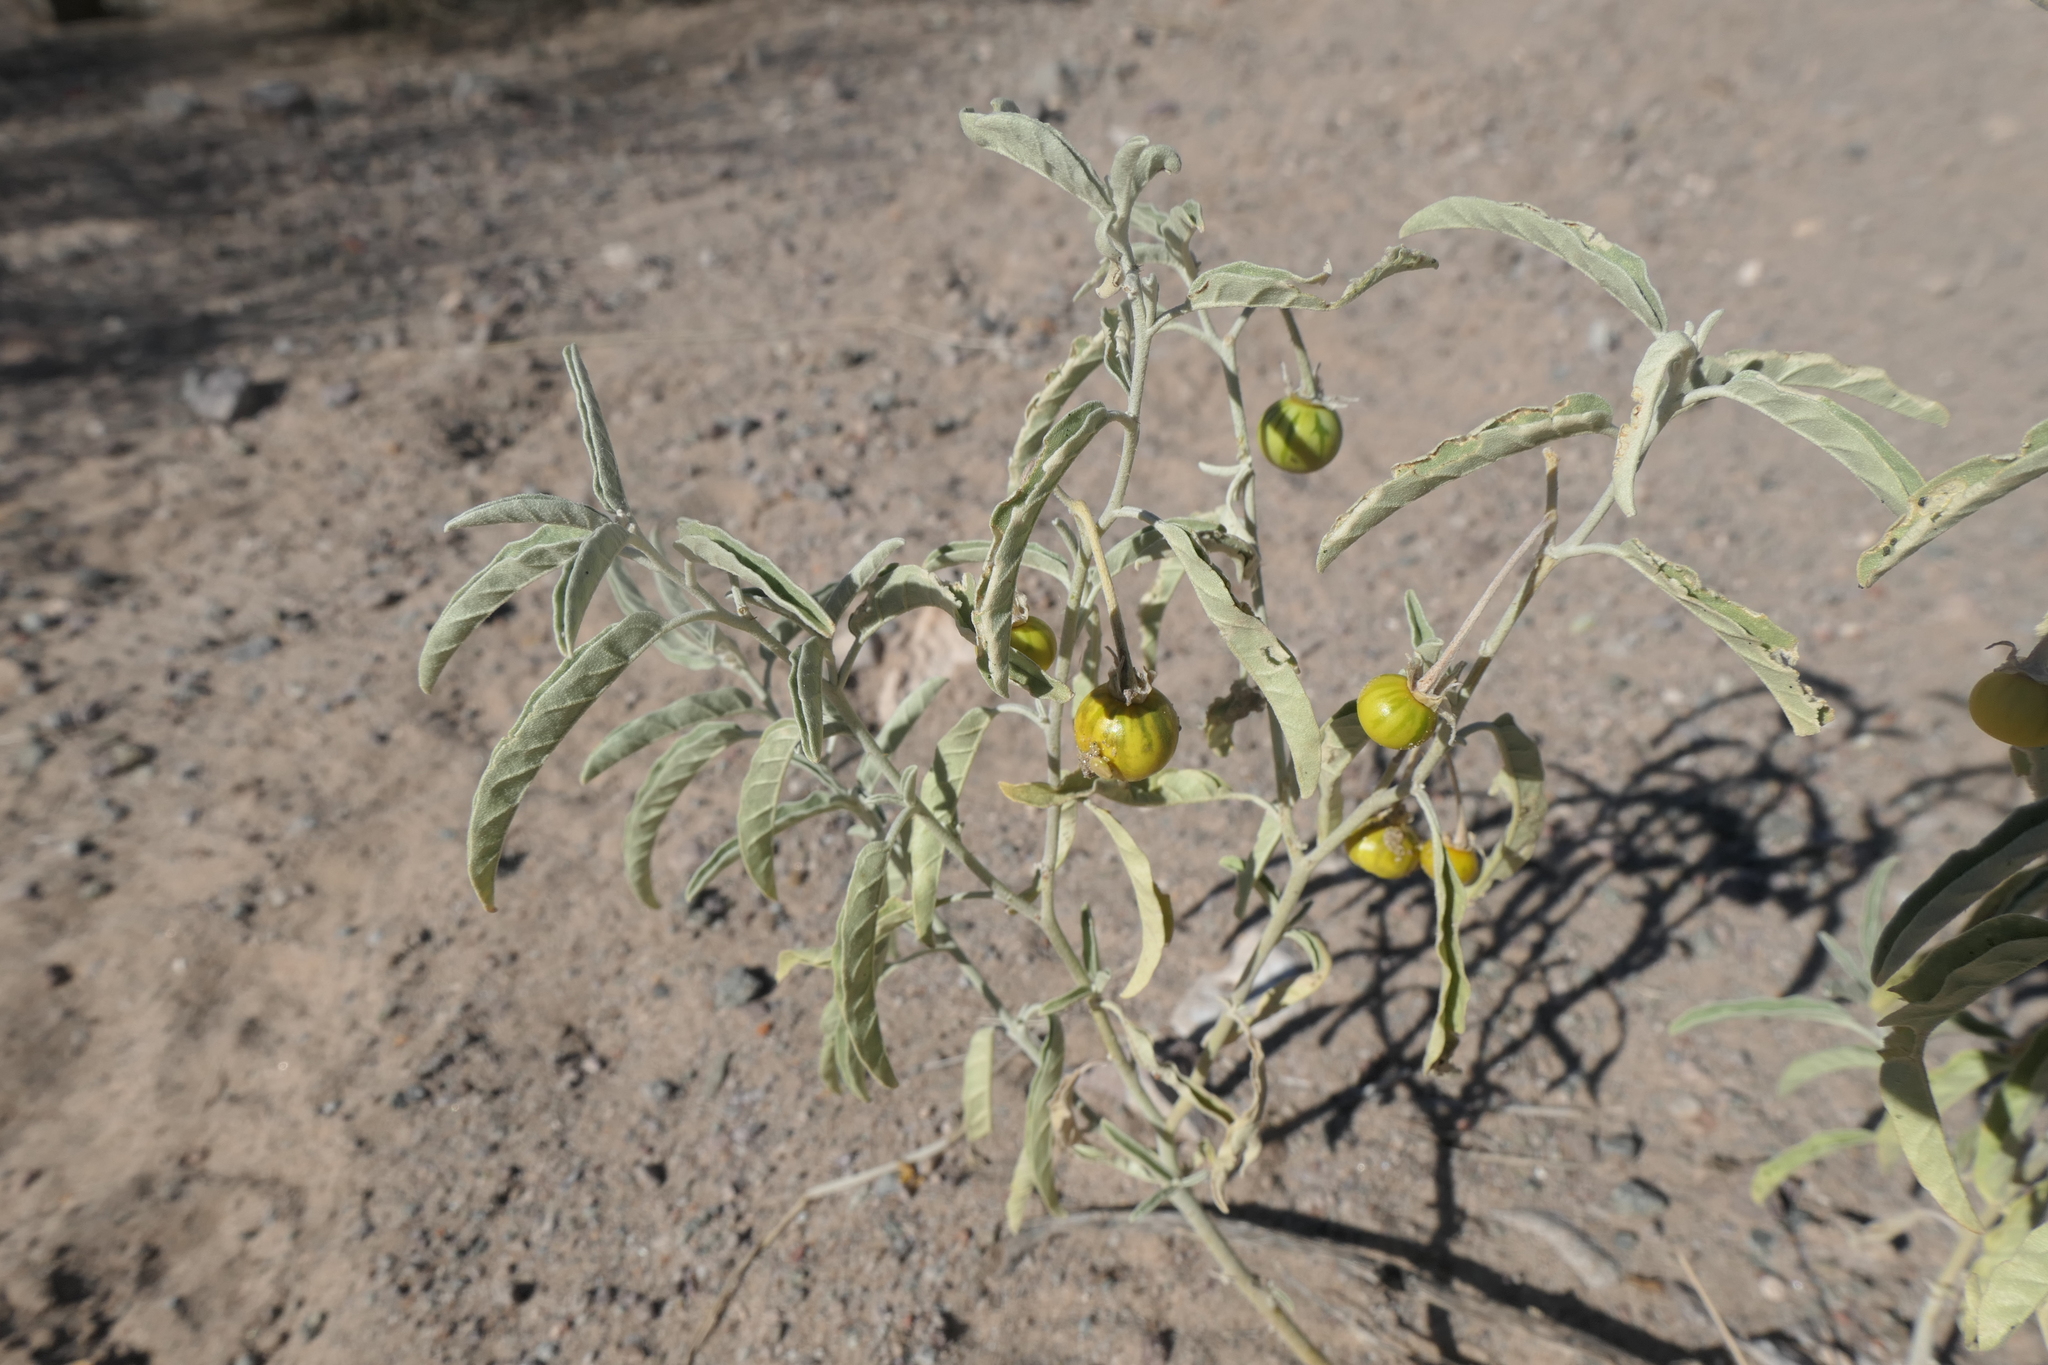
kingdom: Plantae
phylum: Tracheophyta
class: Magnoliopsida
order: Solanales
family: Solanaceae
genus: Solanum
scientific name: Solanum elaeagnifolium
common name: Silverleaf nightshade
